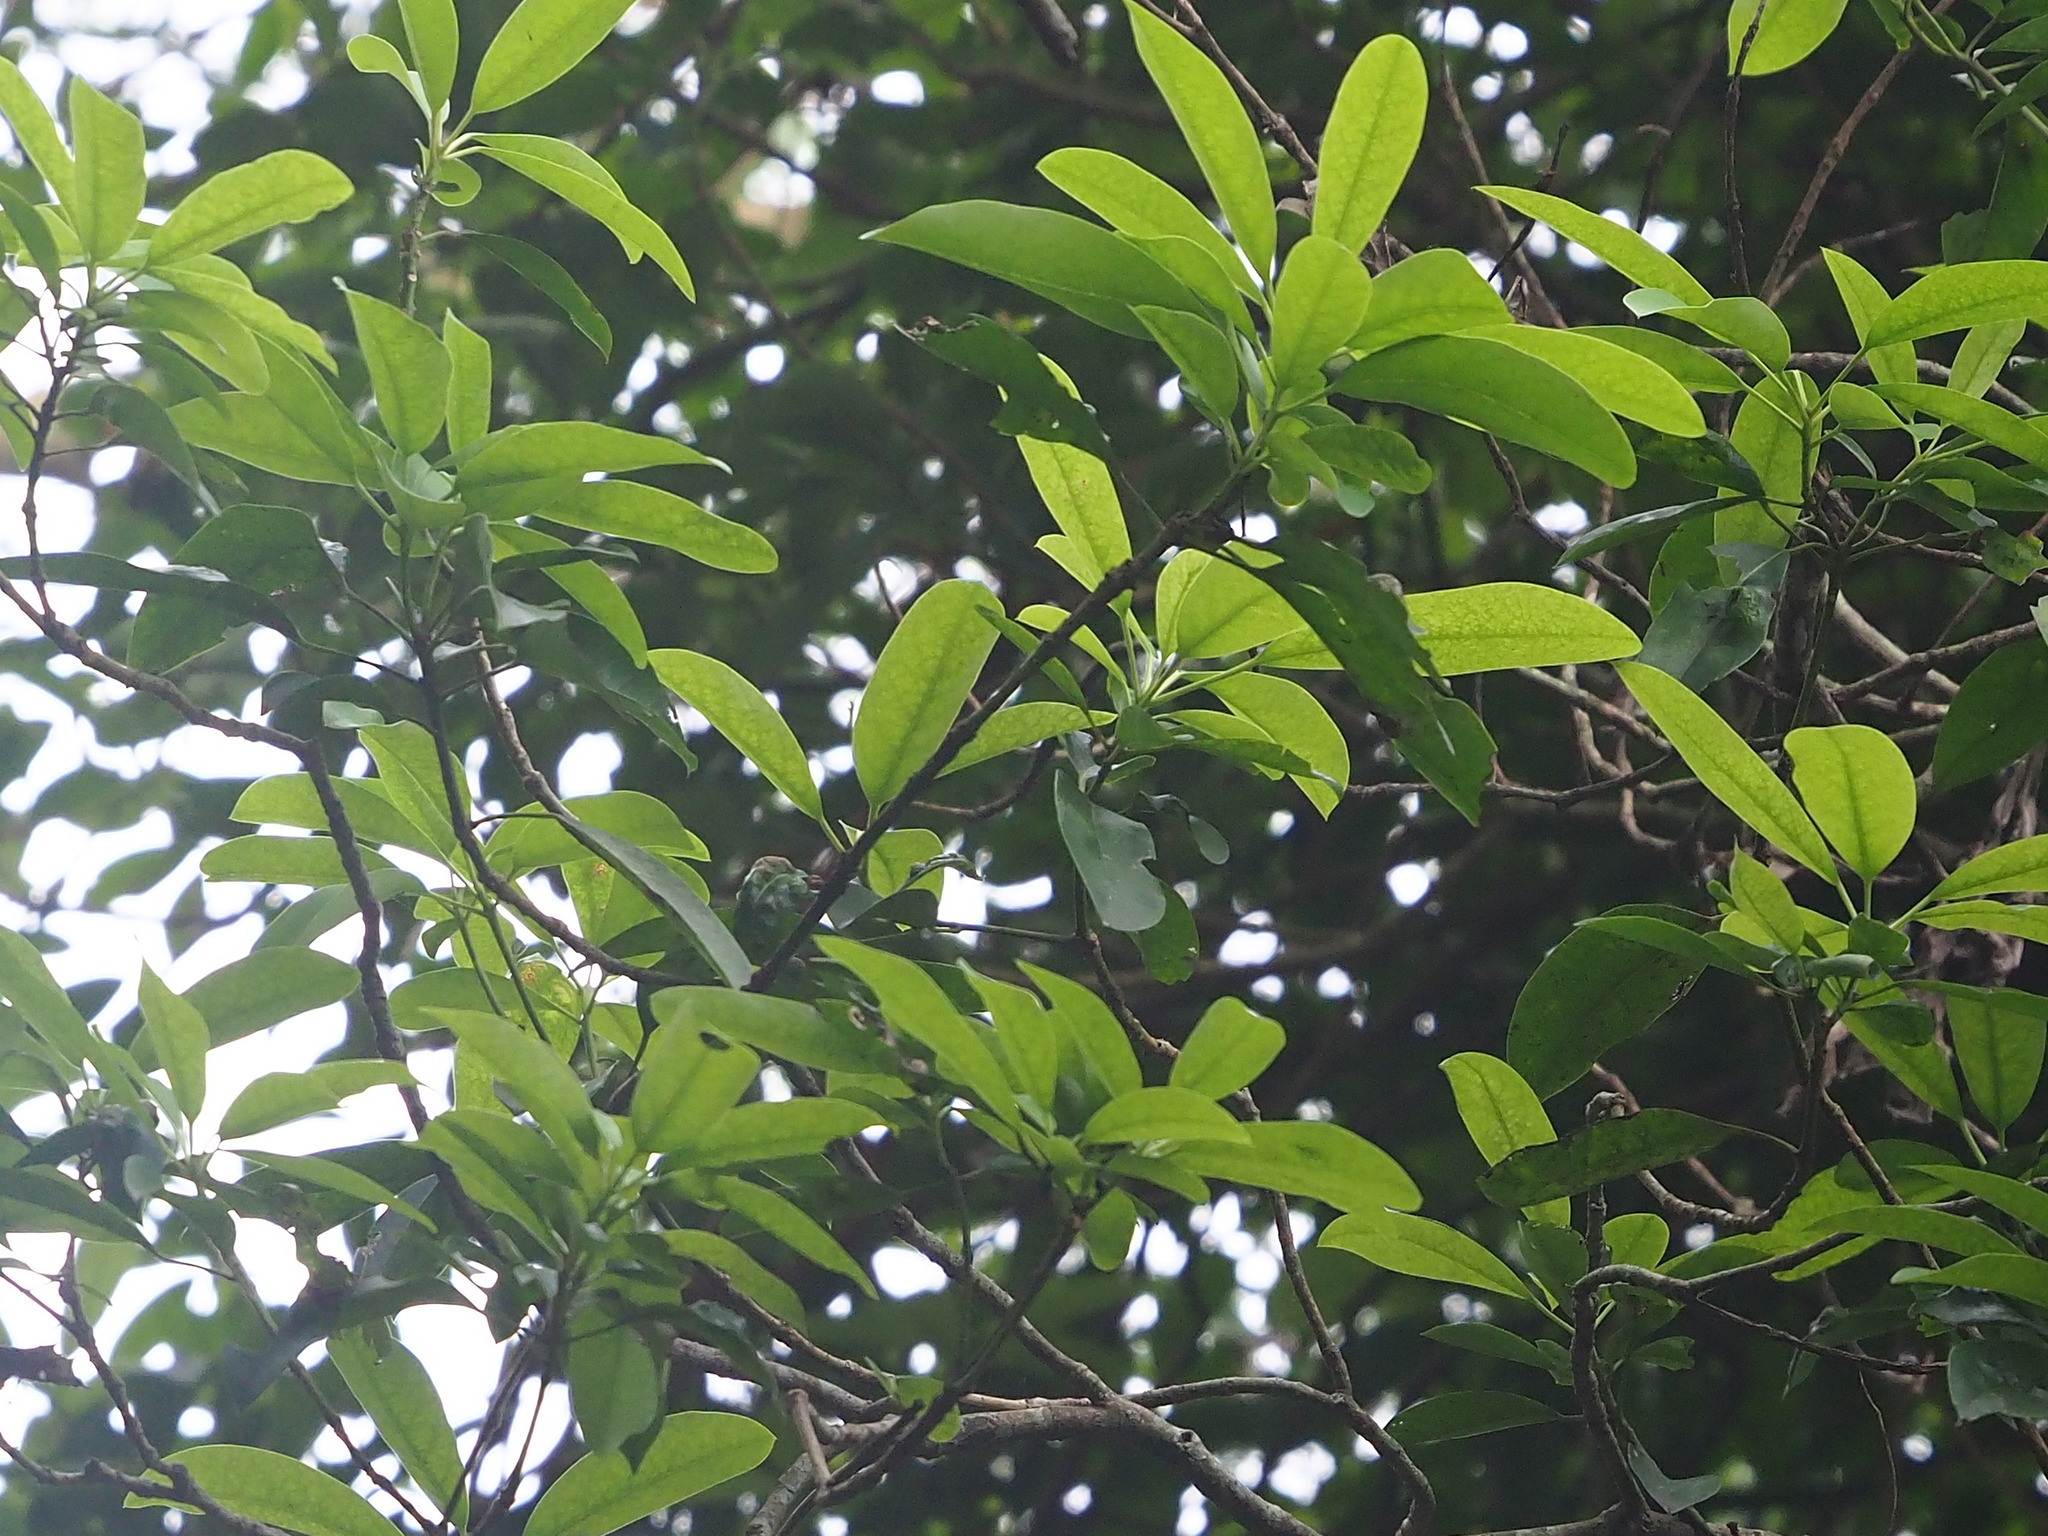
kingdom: Plantae
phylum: Tracheophyta
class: Magnoliopsida
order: Saxifragales
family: Daphniphyllaceae
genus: Daphniphyllum
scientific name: Daphniphyllum pentandrum
